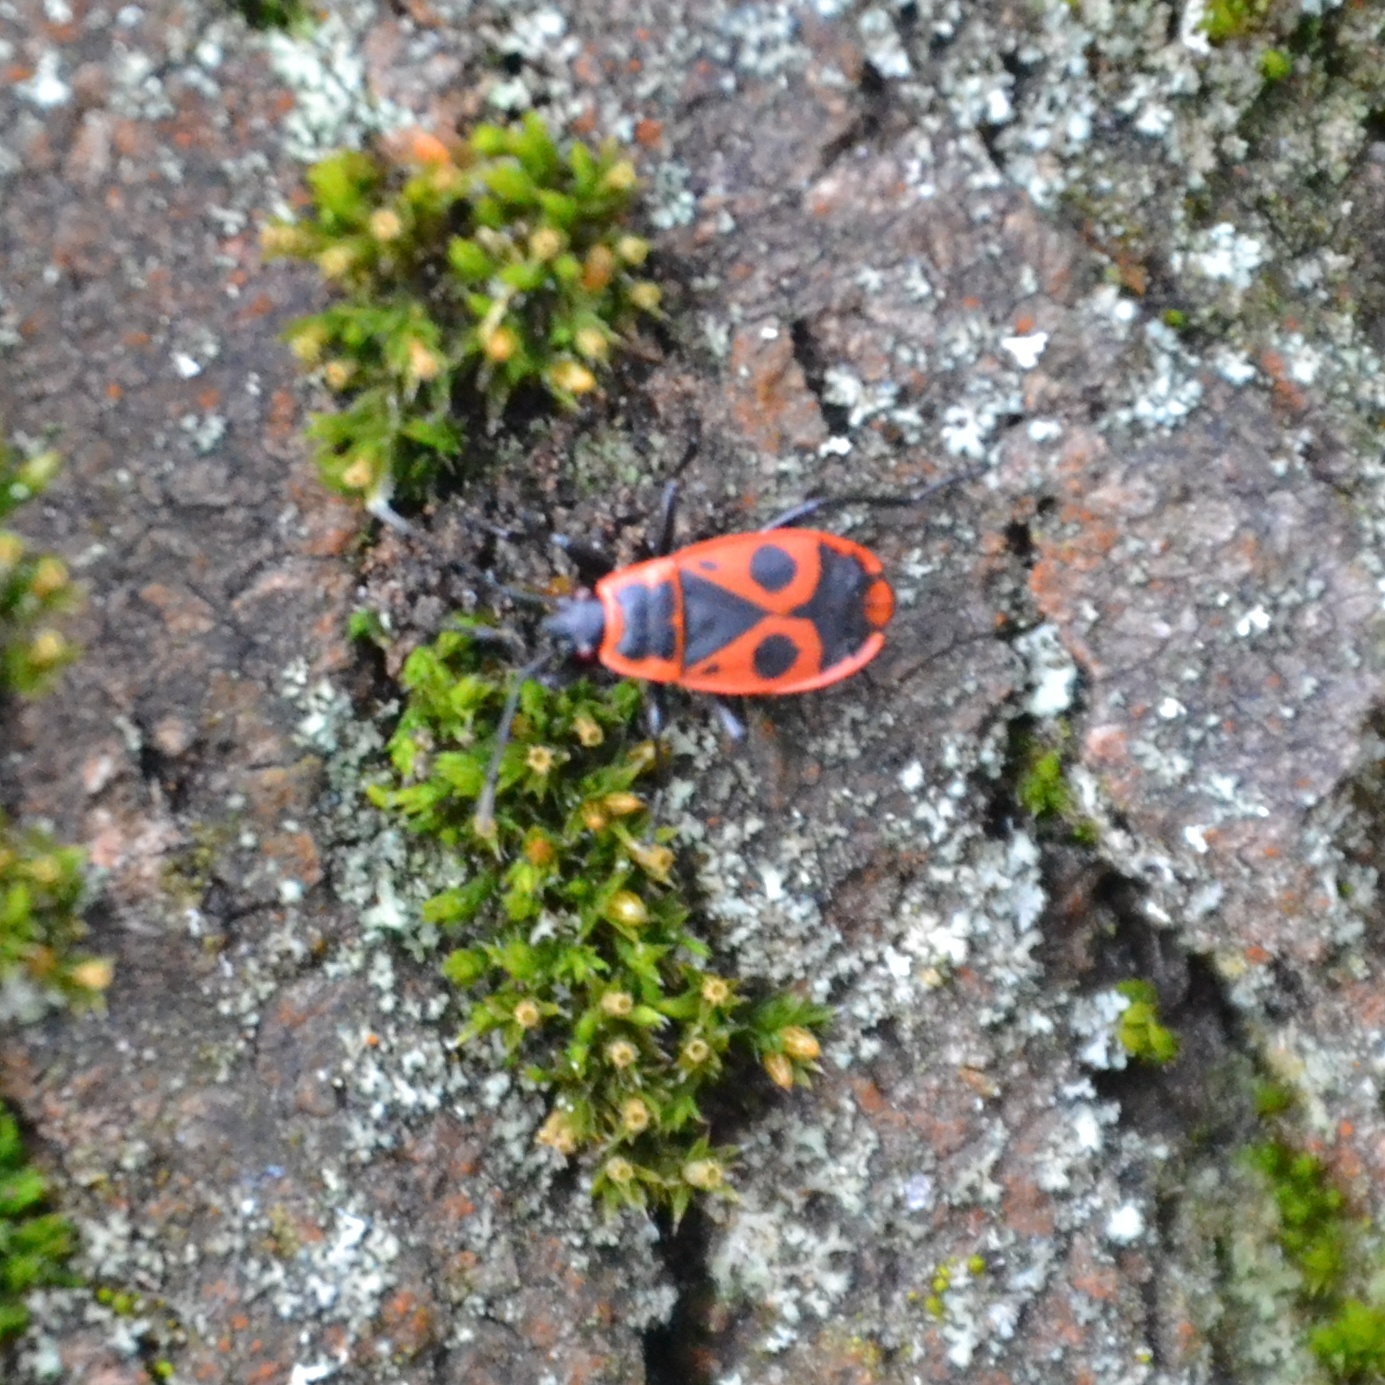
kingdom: Animalia
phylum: Arthropoda
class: Insecta
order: Hemiptera
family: Pyrrhocoridae
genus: Pyrrhocoris
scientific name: Pyrrhocoris apterus
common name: Firebug
